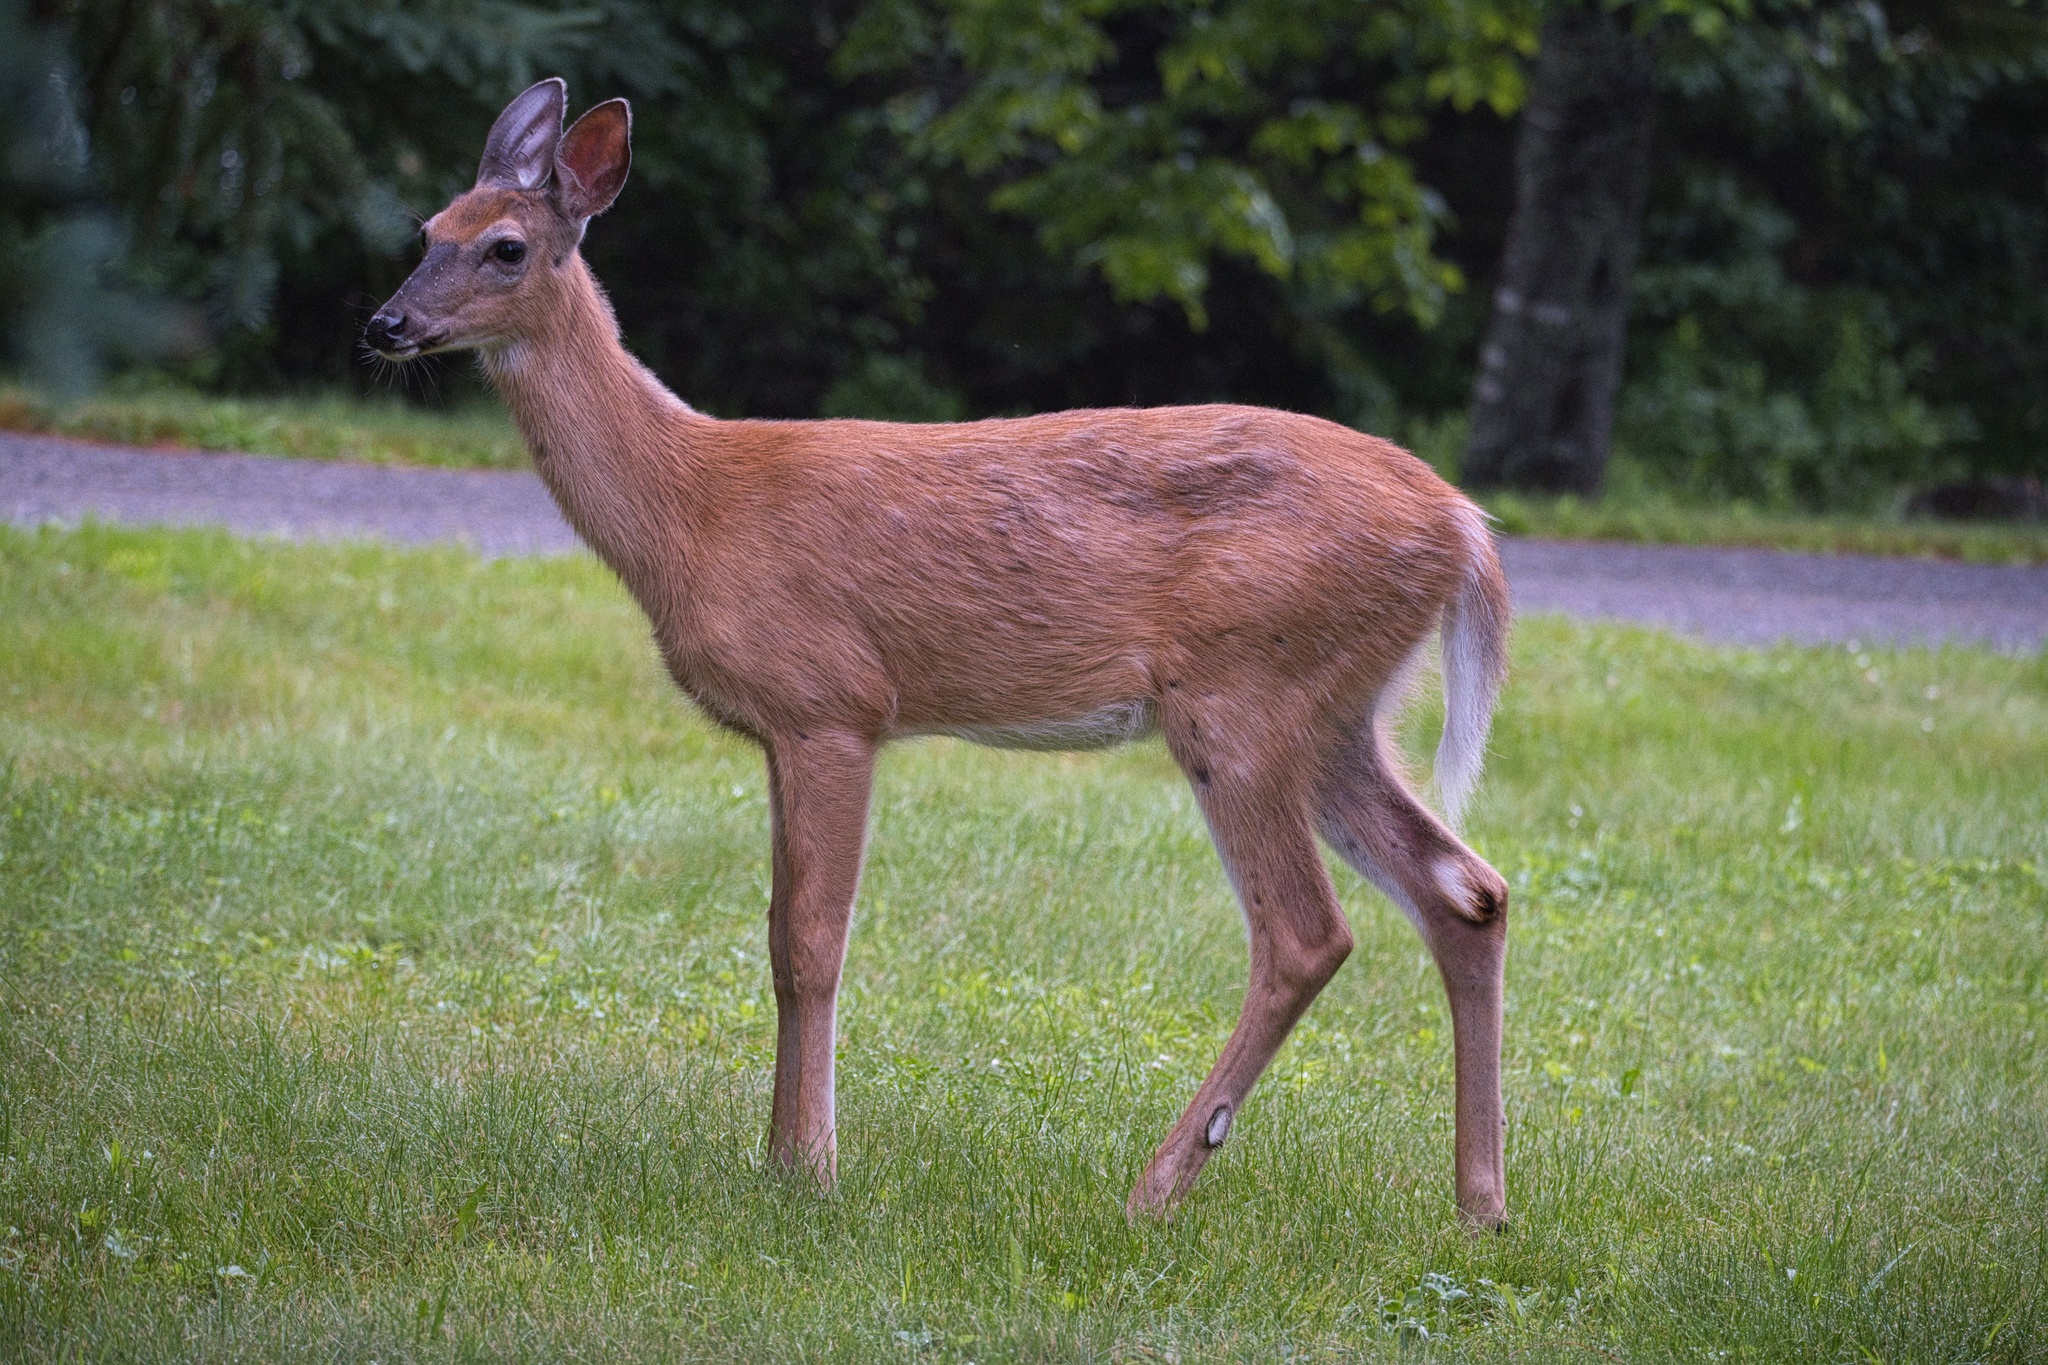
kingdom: Animalia
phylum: Chordata
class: Mammalia
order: Artiodactyla
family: Cervidae
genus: Odocoileus
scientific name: Odocoileus virginianus
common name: White-tailed deer
